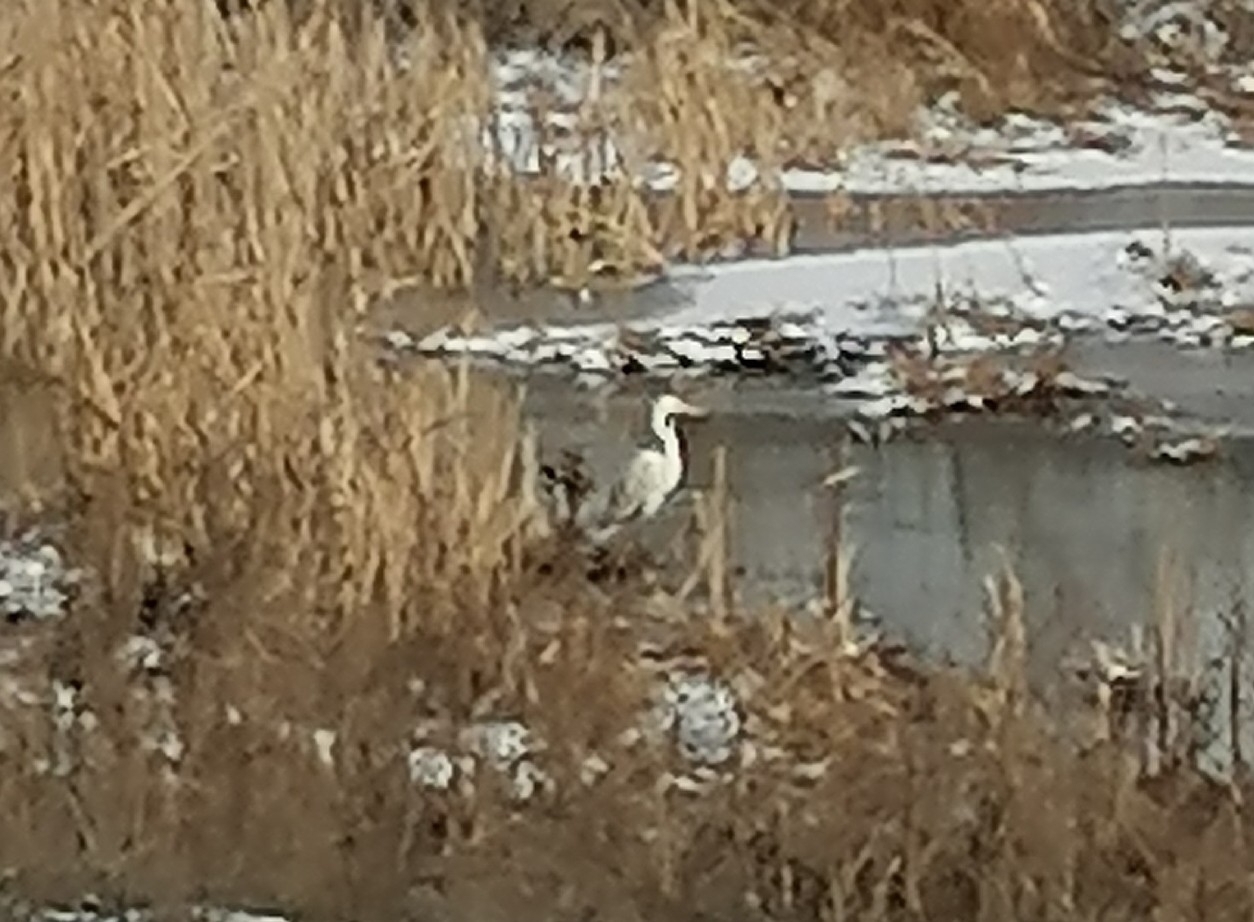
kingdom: Animalia
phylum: Chordata
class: Aves
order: Pelecaniformes
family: Ardeidae
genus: Ardea
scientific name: Ardea alba
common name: Great egret
